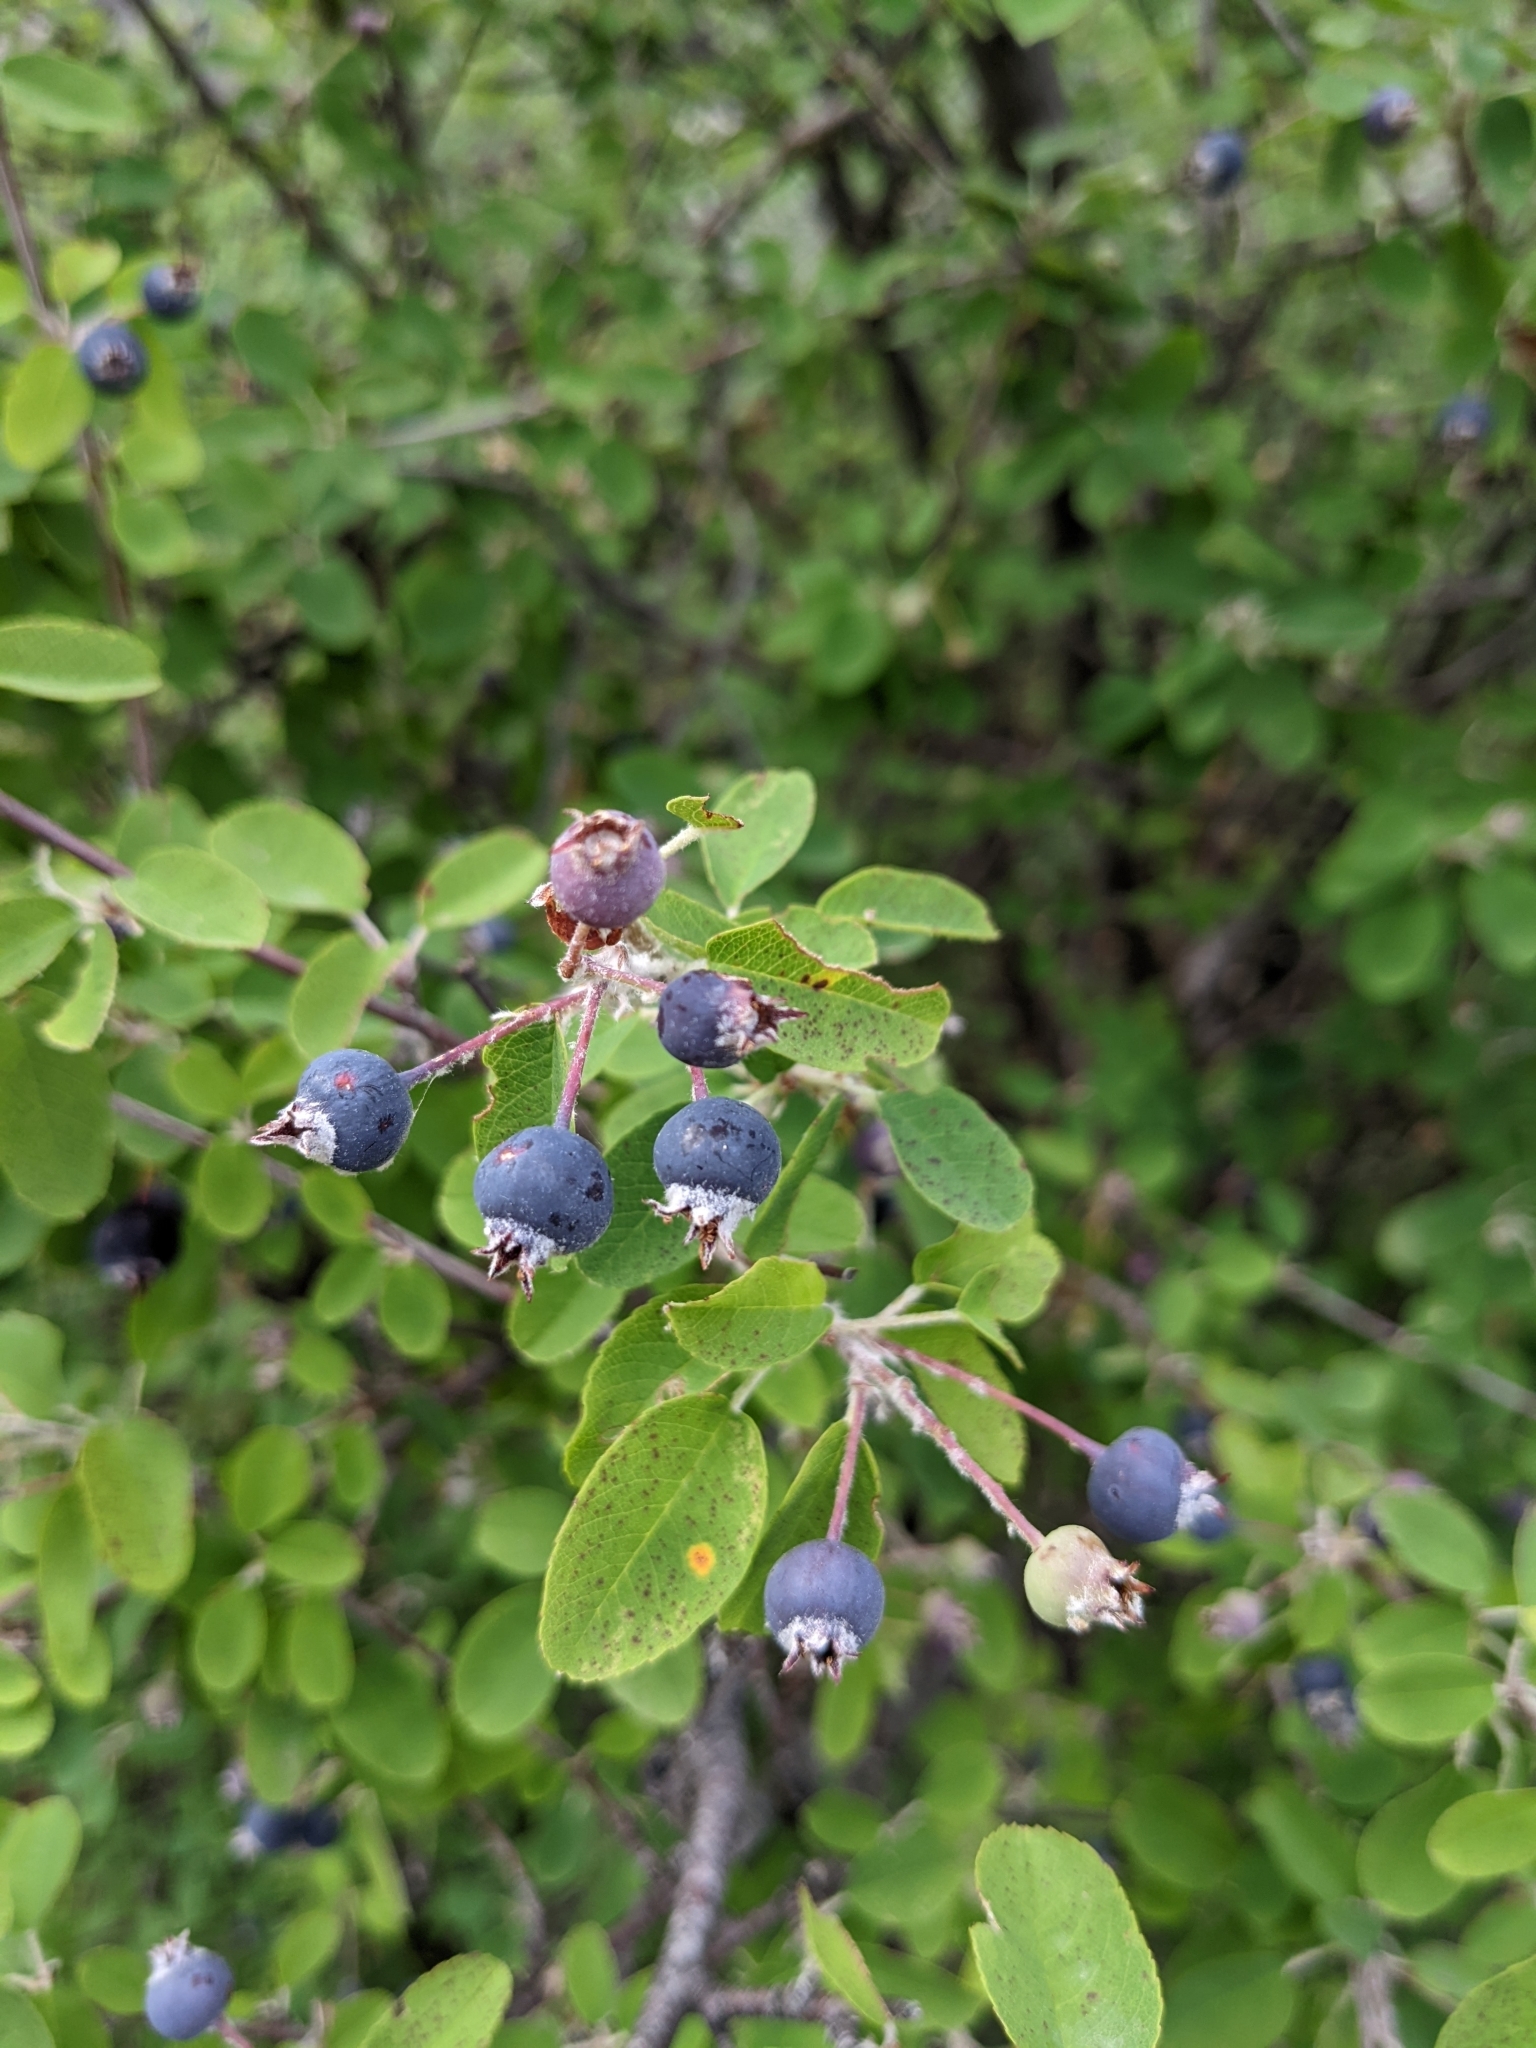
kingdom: Plantae
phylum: Tracheophyta
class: Magnoliopsida
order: Rosales
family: Rosaceae
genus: Amelanchier
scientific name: Amelanchier ovalis
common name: Serviceberry
